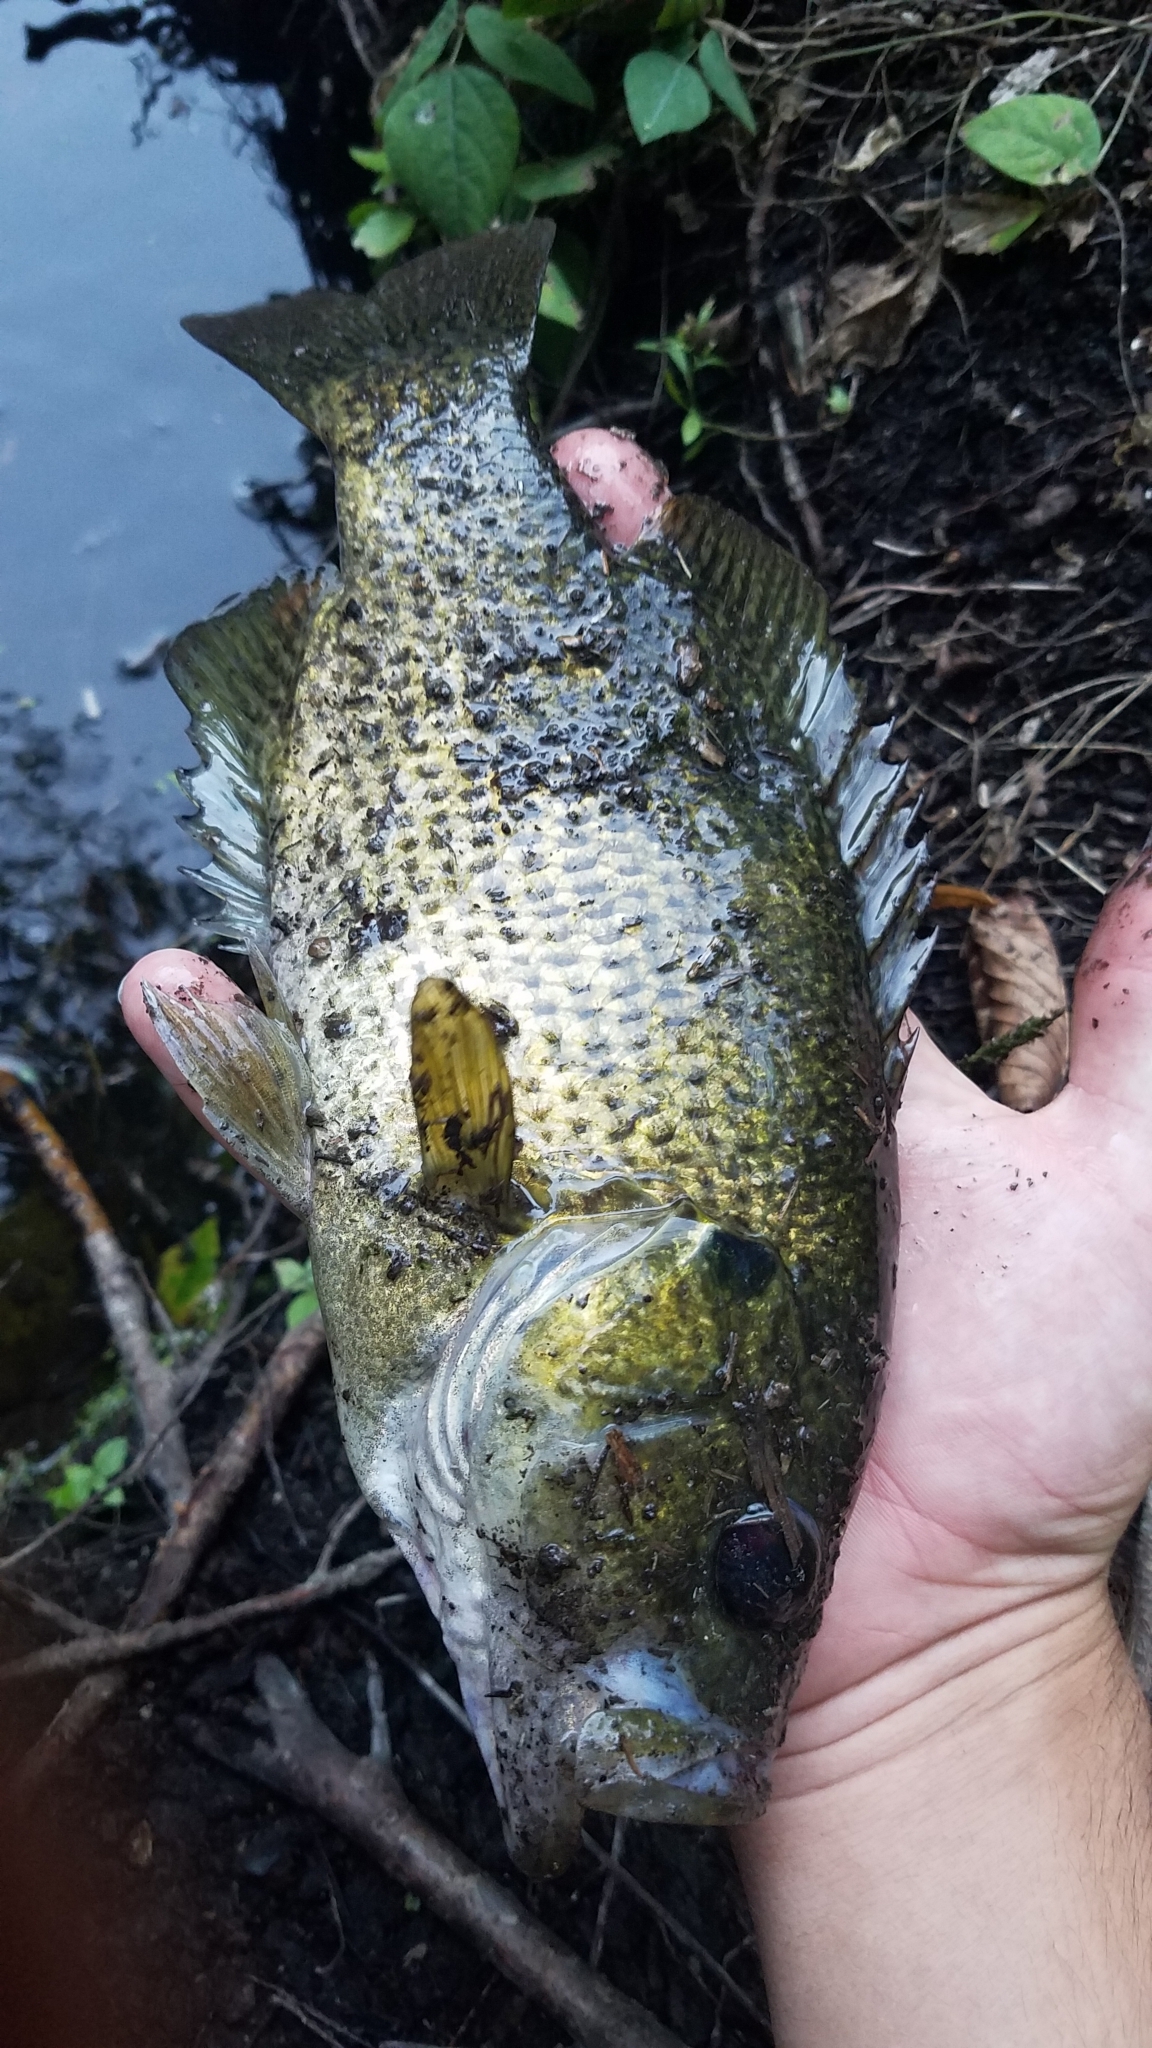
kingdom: Animalia
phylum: Chordata
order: Perciformes
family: Centrarchidae
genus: Ambloplites
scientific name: Ambloplites rupestris
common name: Rock bass
